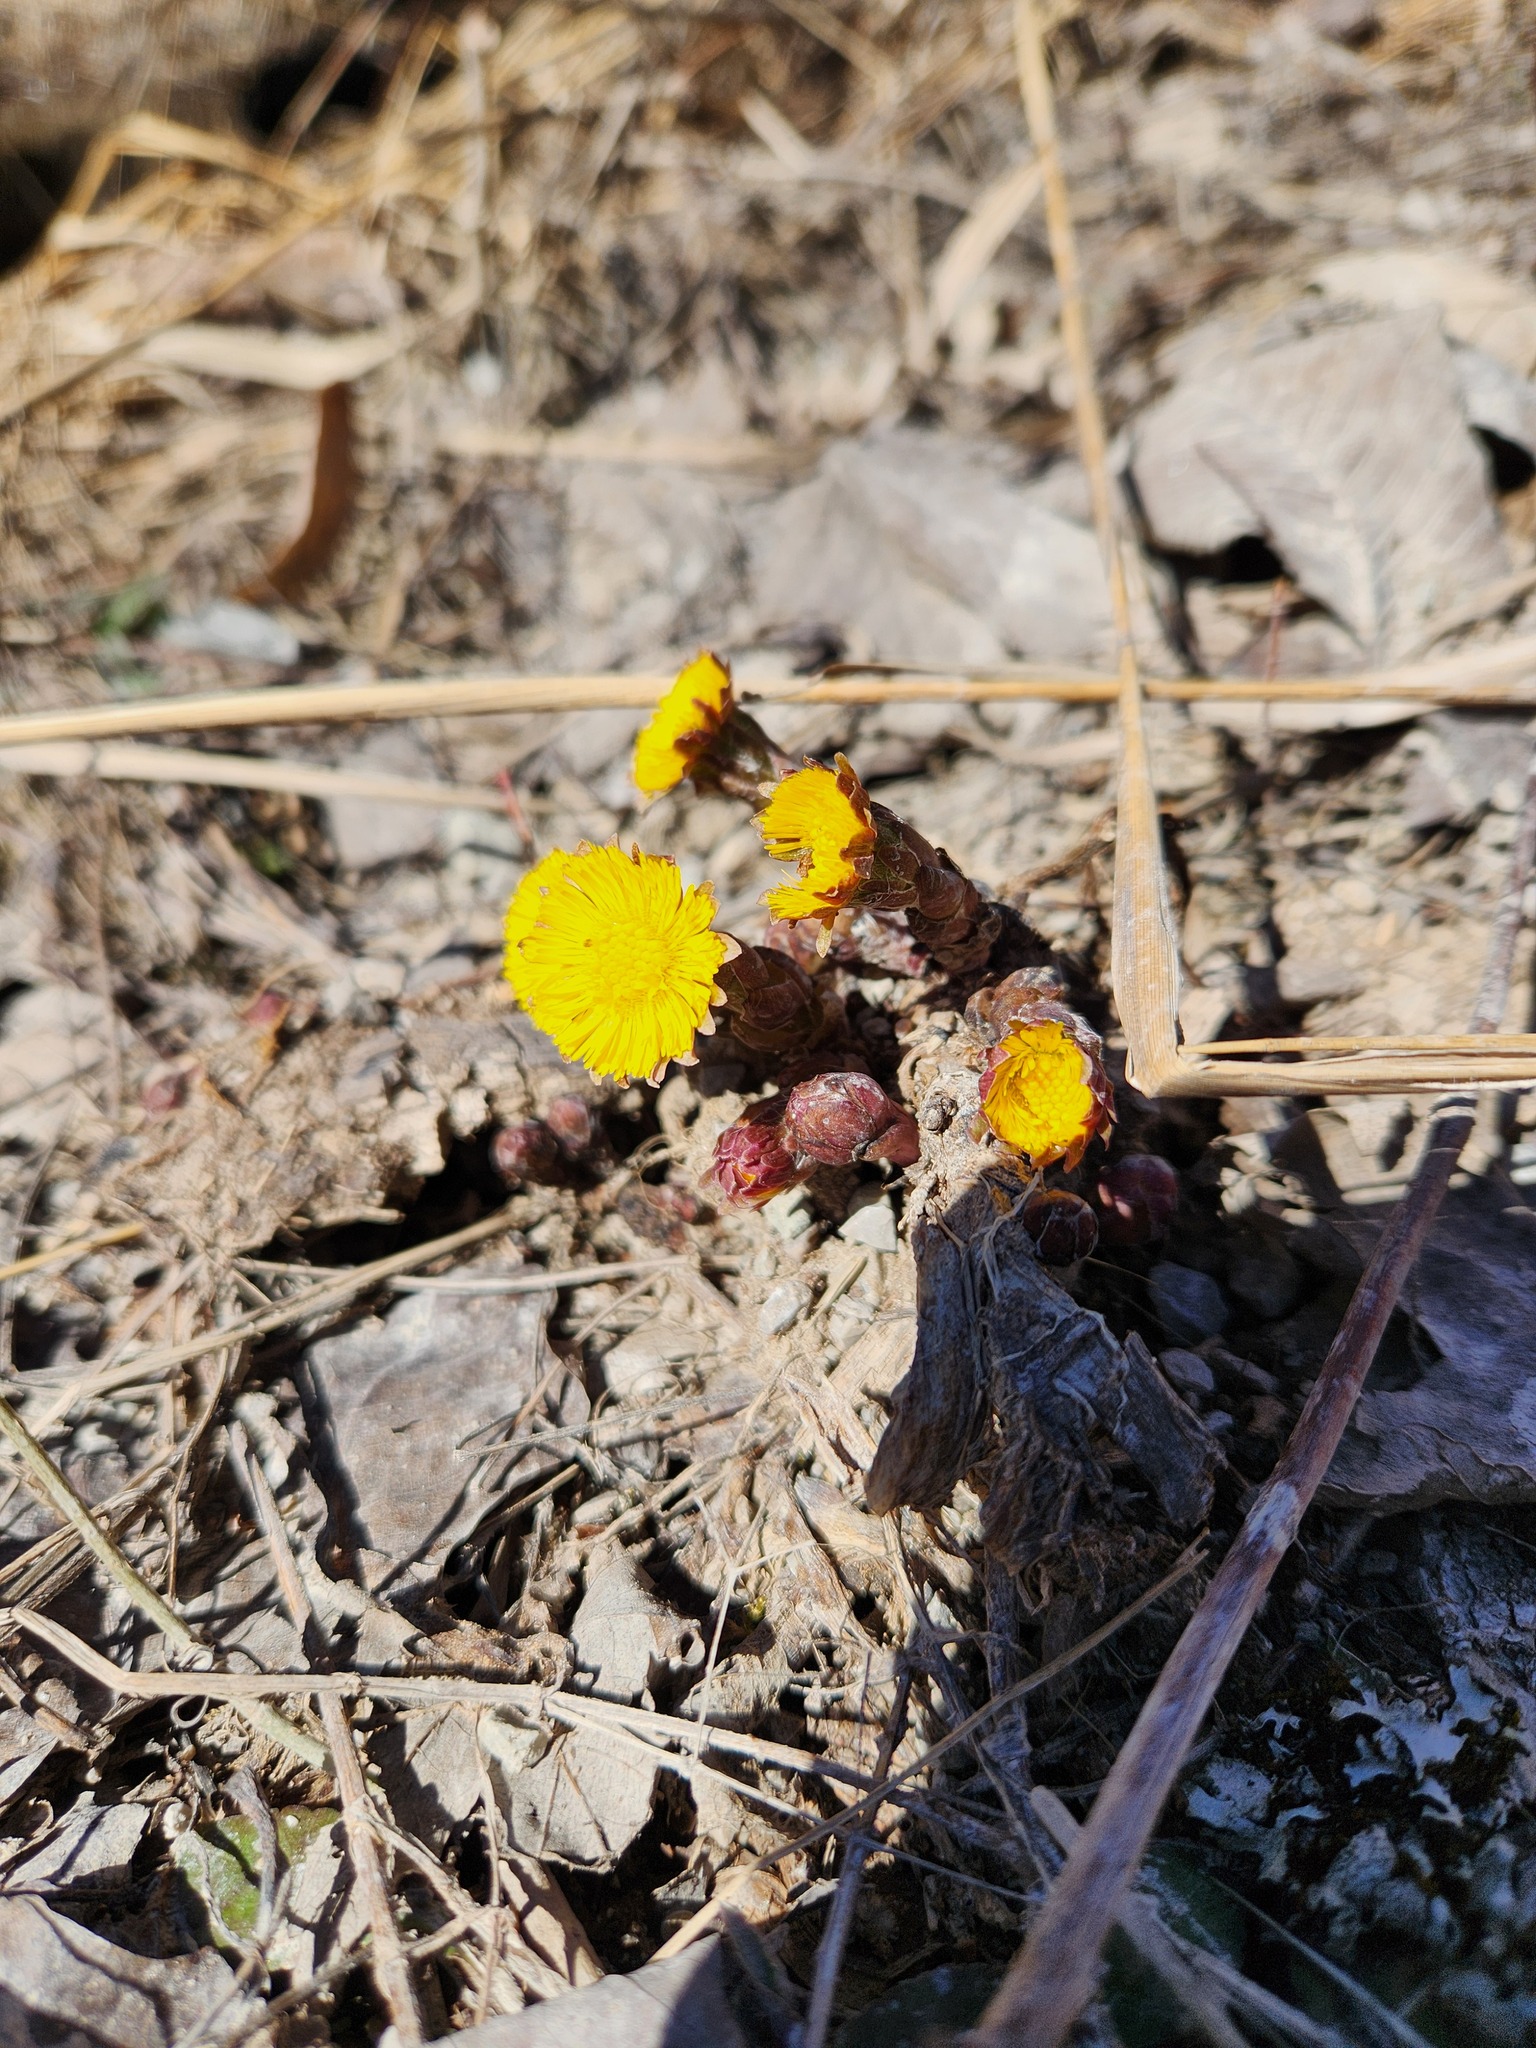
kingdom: Plantae
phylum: Tracheophyta
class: Magnoliopsida
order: Asterales
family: Asteraceae
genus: Tussilago
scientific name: Tussilago farfara
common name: Coltsfoot
